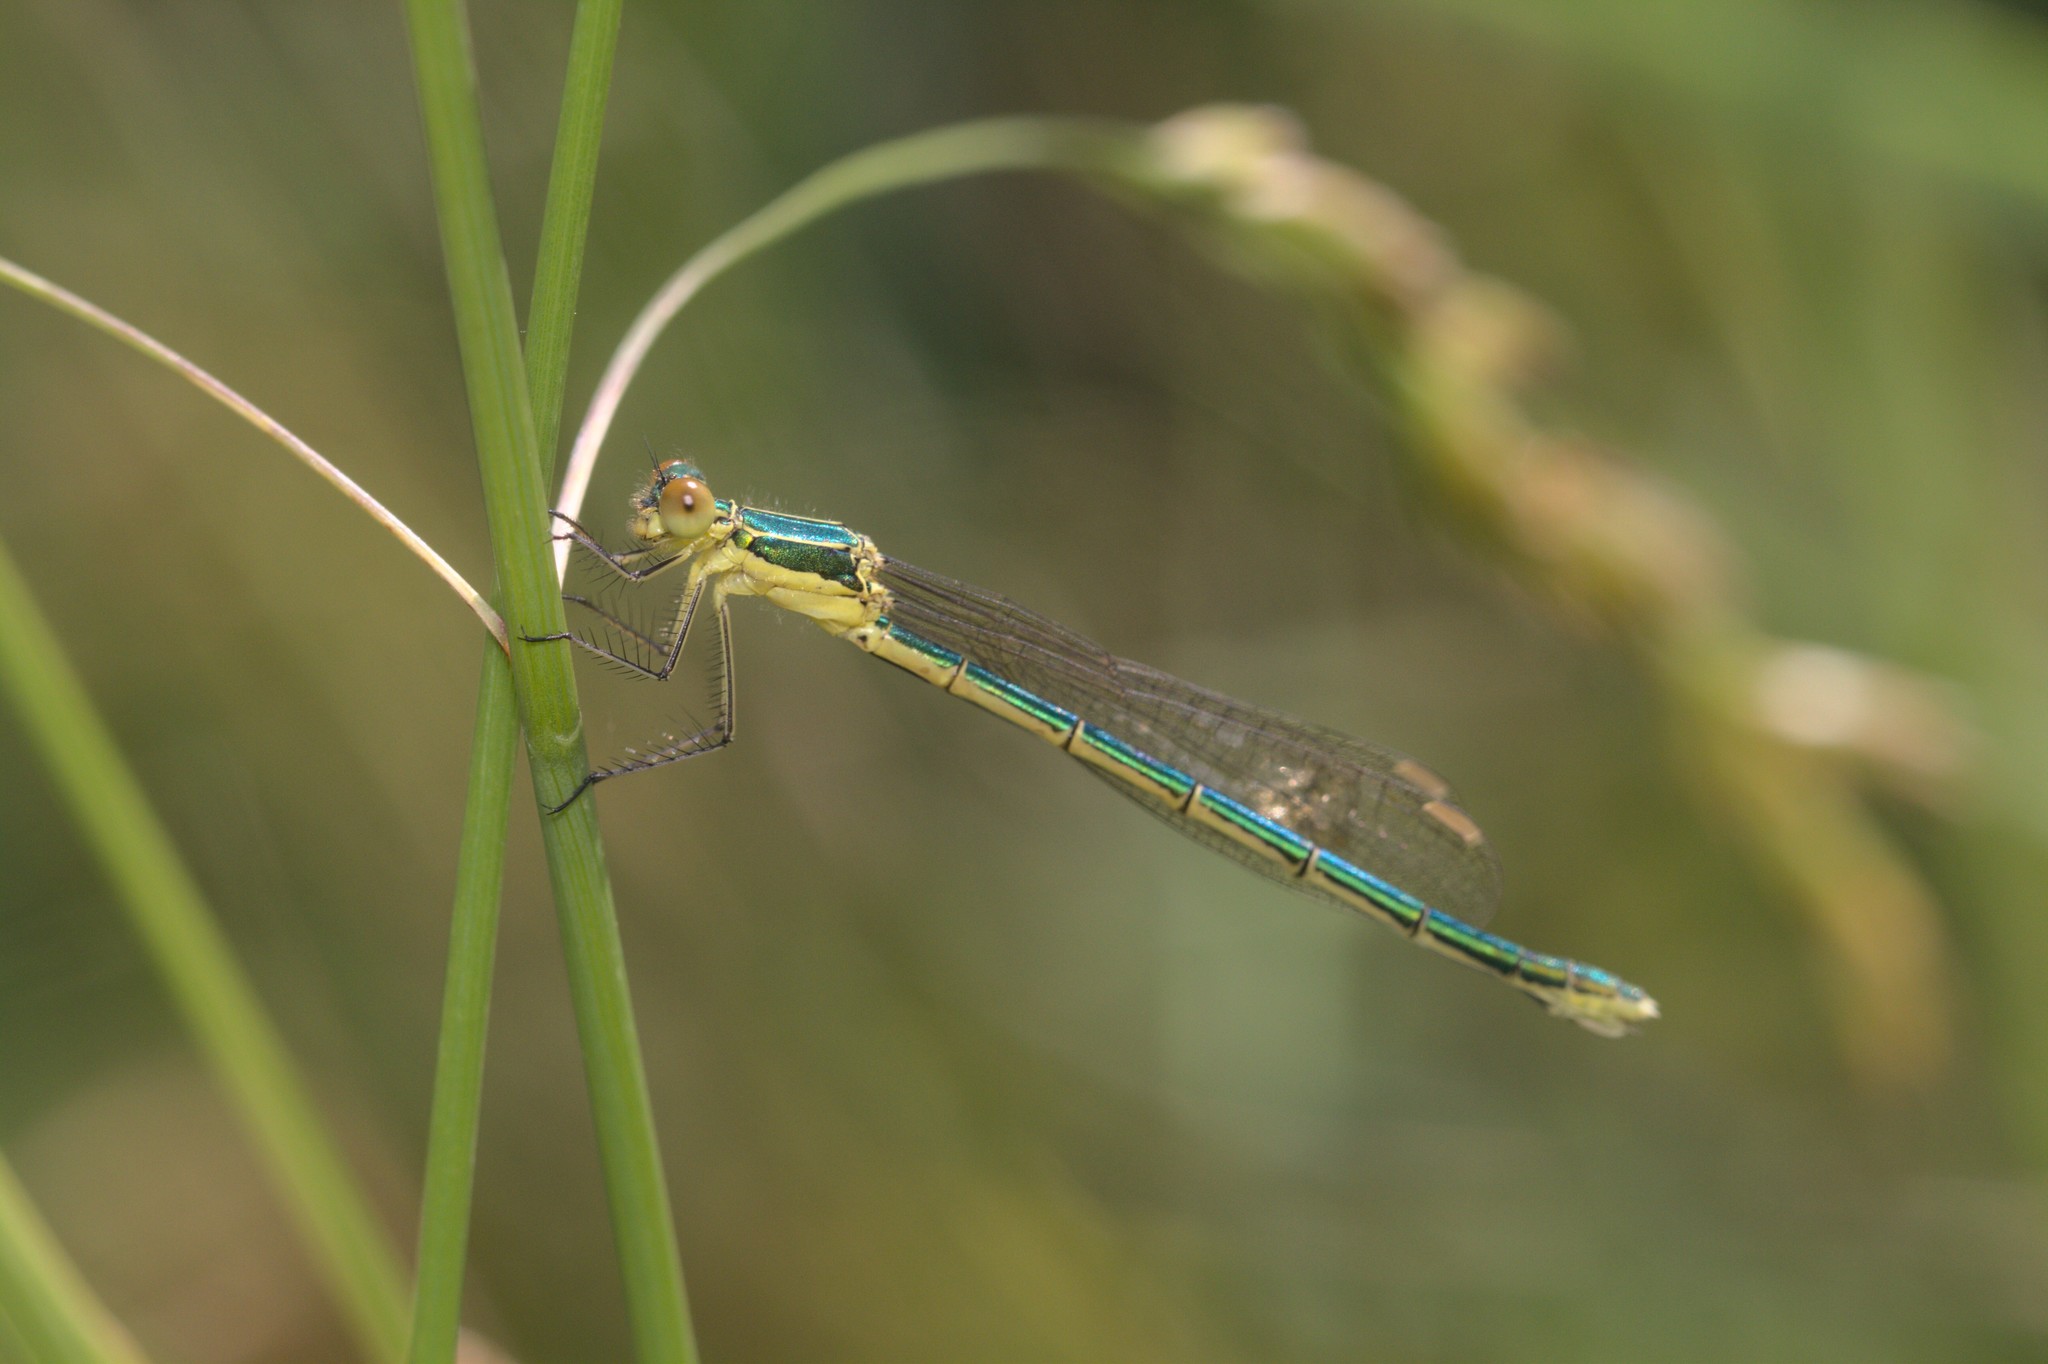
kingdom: Animalia
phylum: Arthropoda
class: Insecta
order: Odonata
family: Lestidae
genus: Lestes
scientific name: Lestes virens
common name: Small emerald spreadwing
